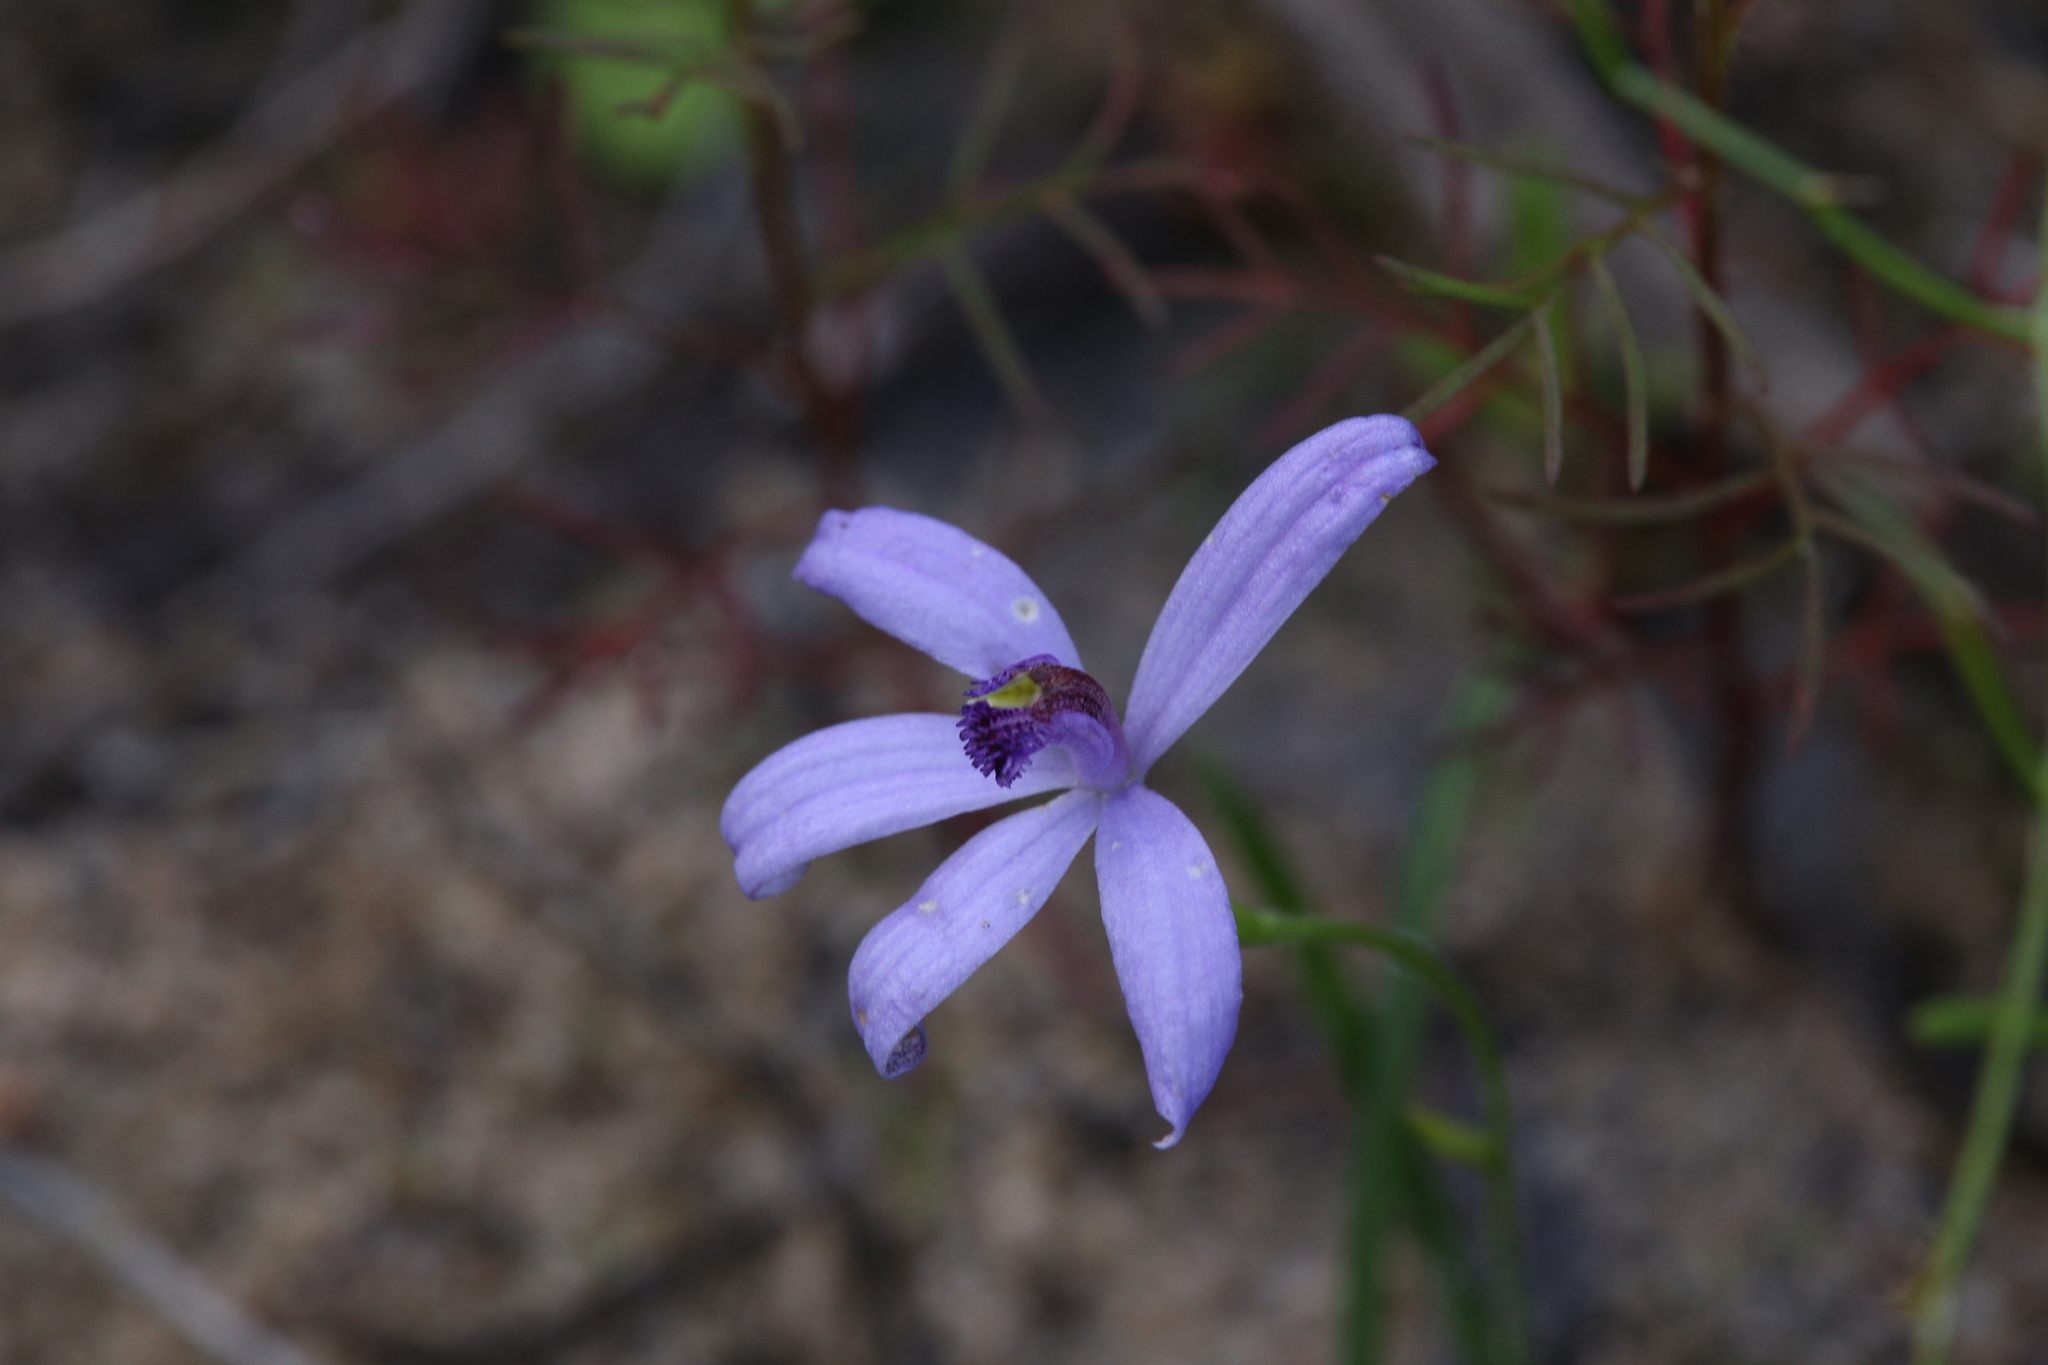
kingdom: Plantae
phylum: Tracheophyta
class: Liliopsida
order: Asparagales
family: Orchidaceae
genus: Pheladenia
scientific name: Pheladenia deformis
